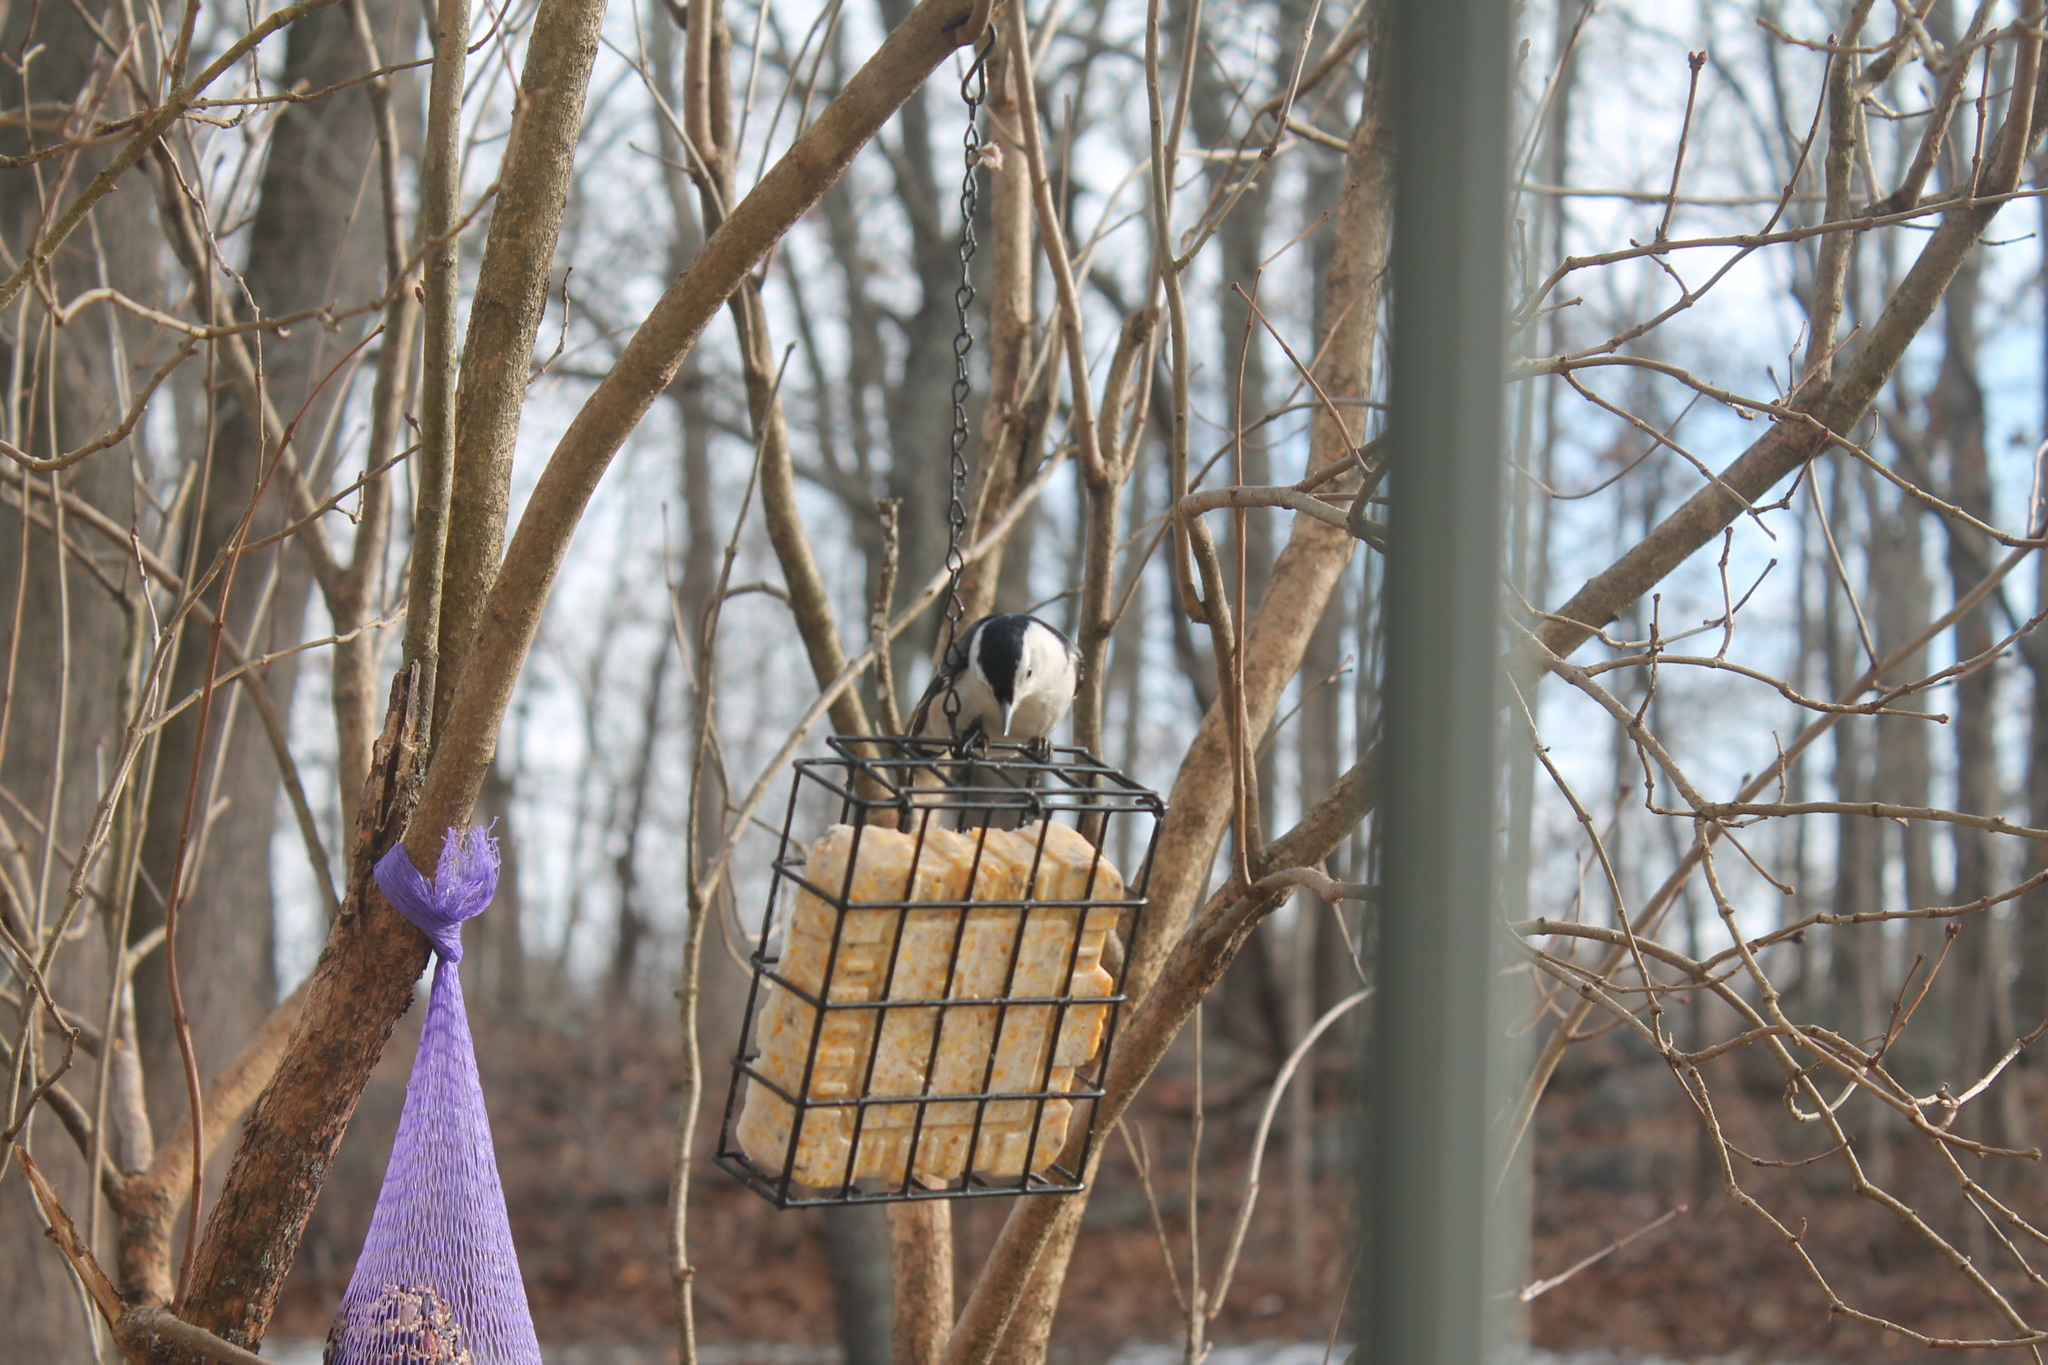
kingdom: Animalia
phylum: Chordata
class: Aves
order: Passeriformes
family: Sittidae
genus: Sitta
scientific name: Sitta carolinensis
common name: White-breasted nuthatch
